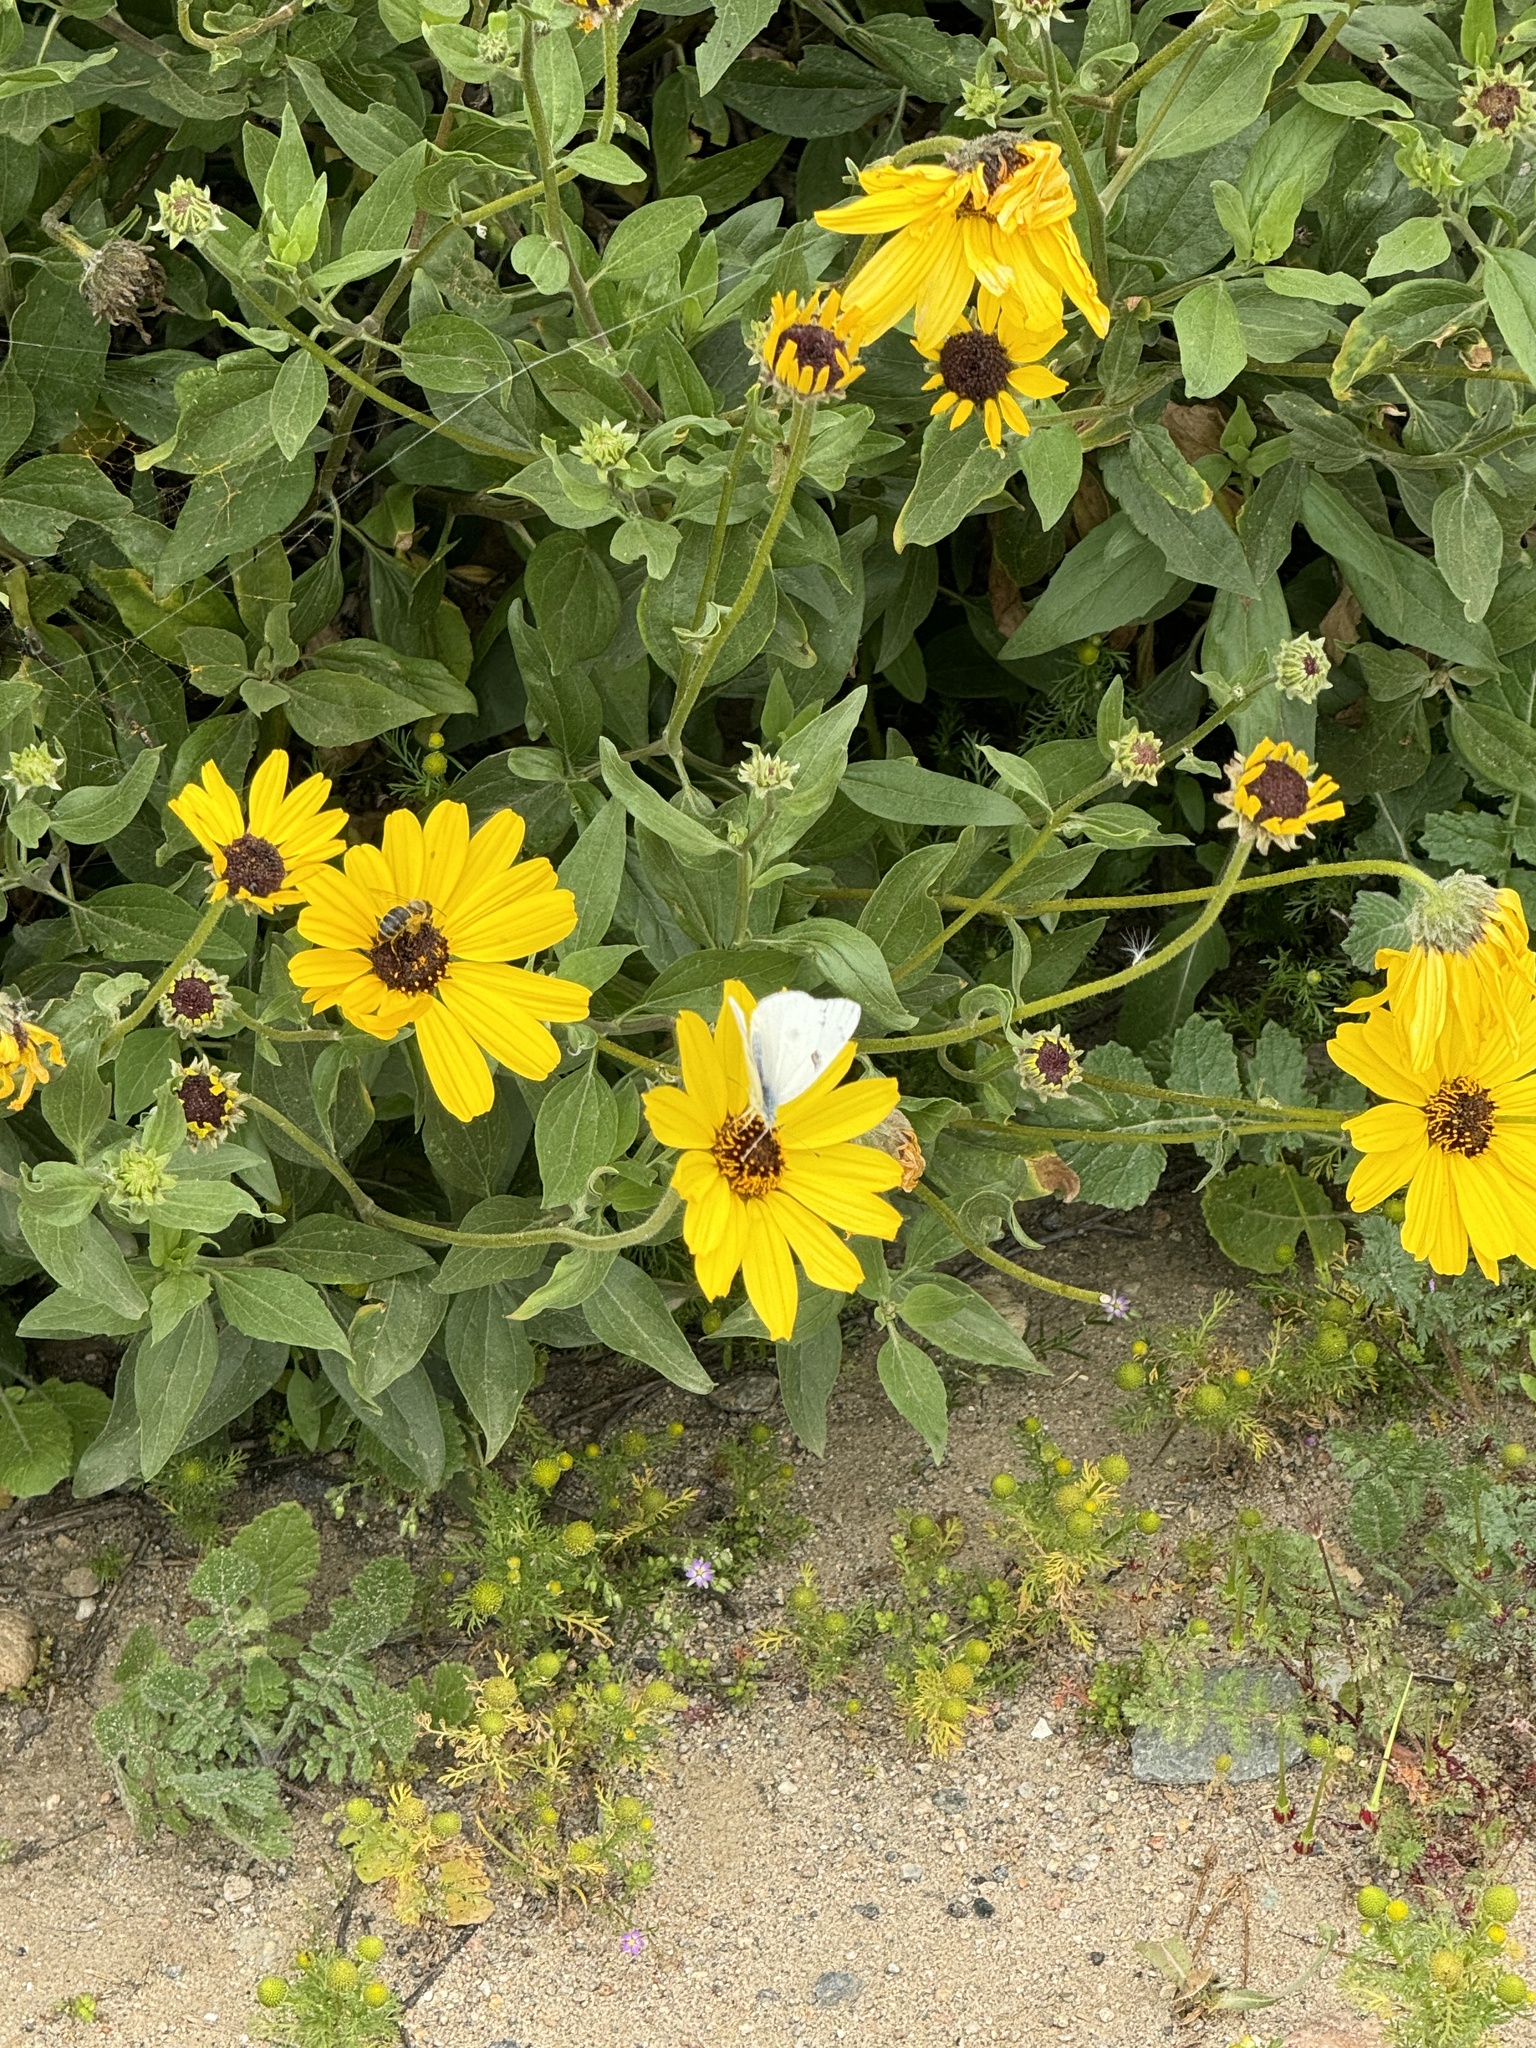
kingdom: Animalia
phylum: Arthropoda
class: Insecta
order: Lepidoptera
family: Pieridae
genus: Pieris
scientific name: Pieris rapae
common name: Small white
